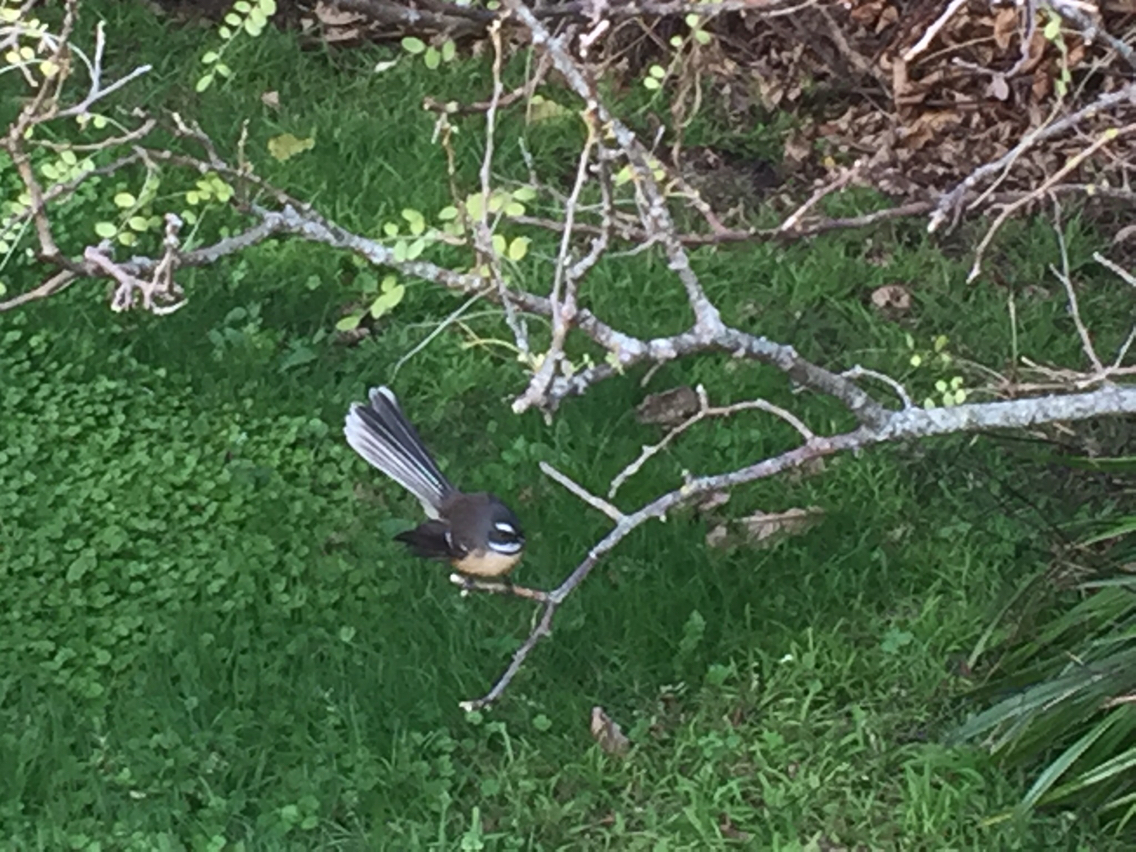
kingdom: Animalia
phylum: Chordata
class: Aves
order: Passeriformes
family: Rhipiduridae
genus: Rhipidura
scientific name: Rhipidura fuliginosa
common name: New zealand fantail
